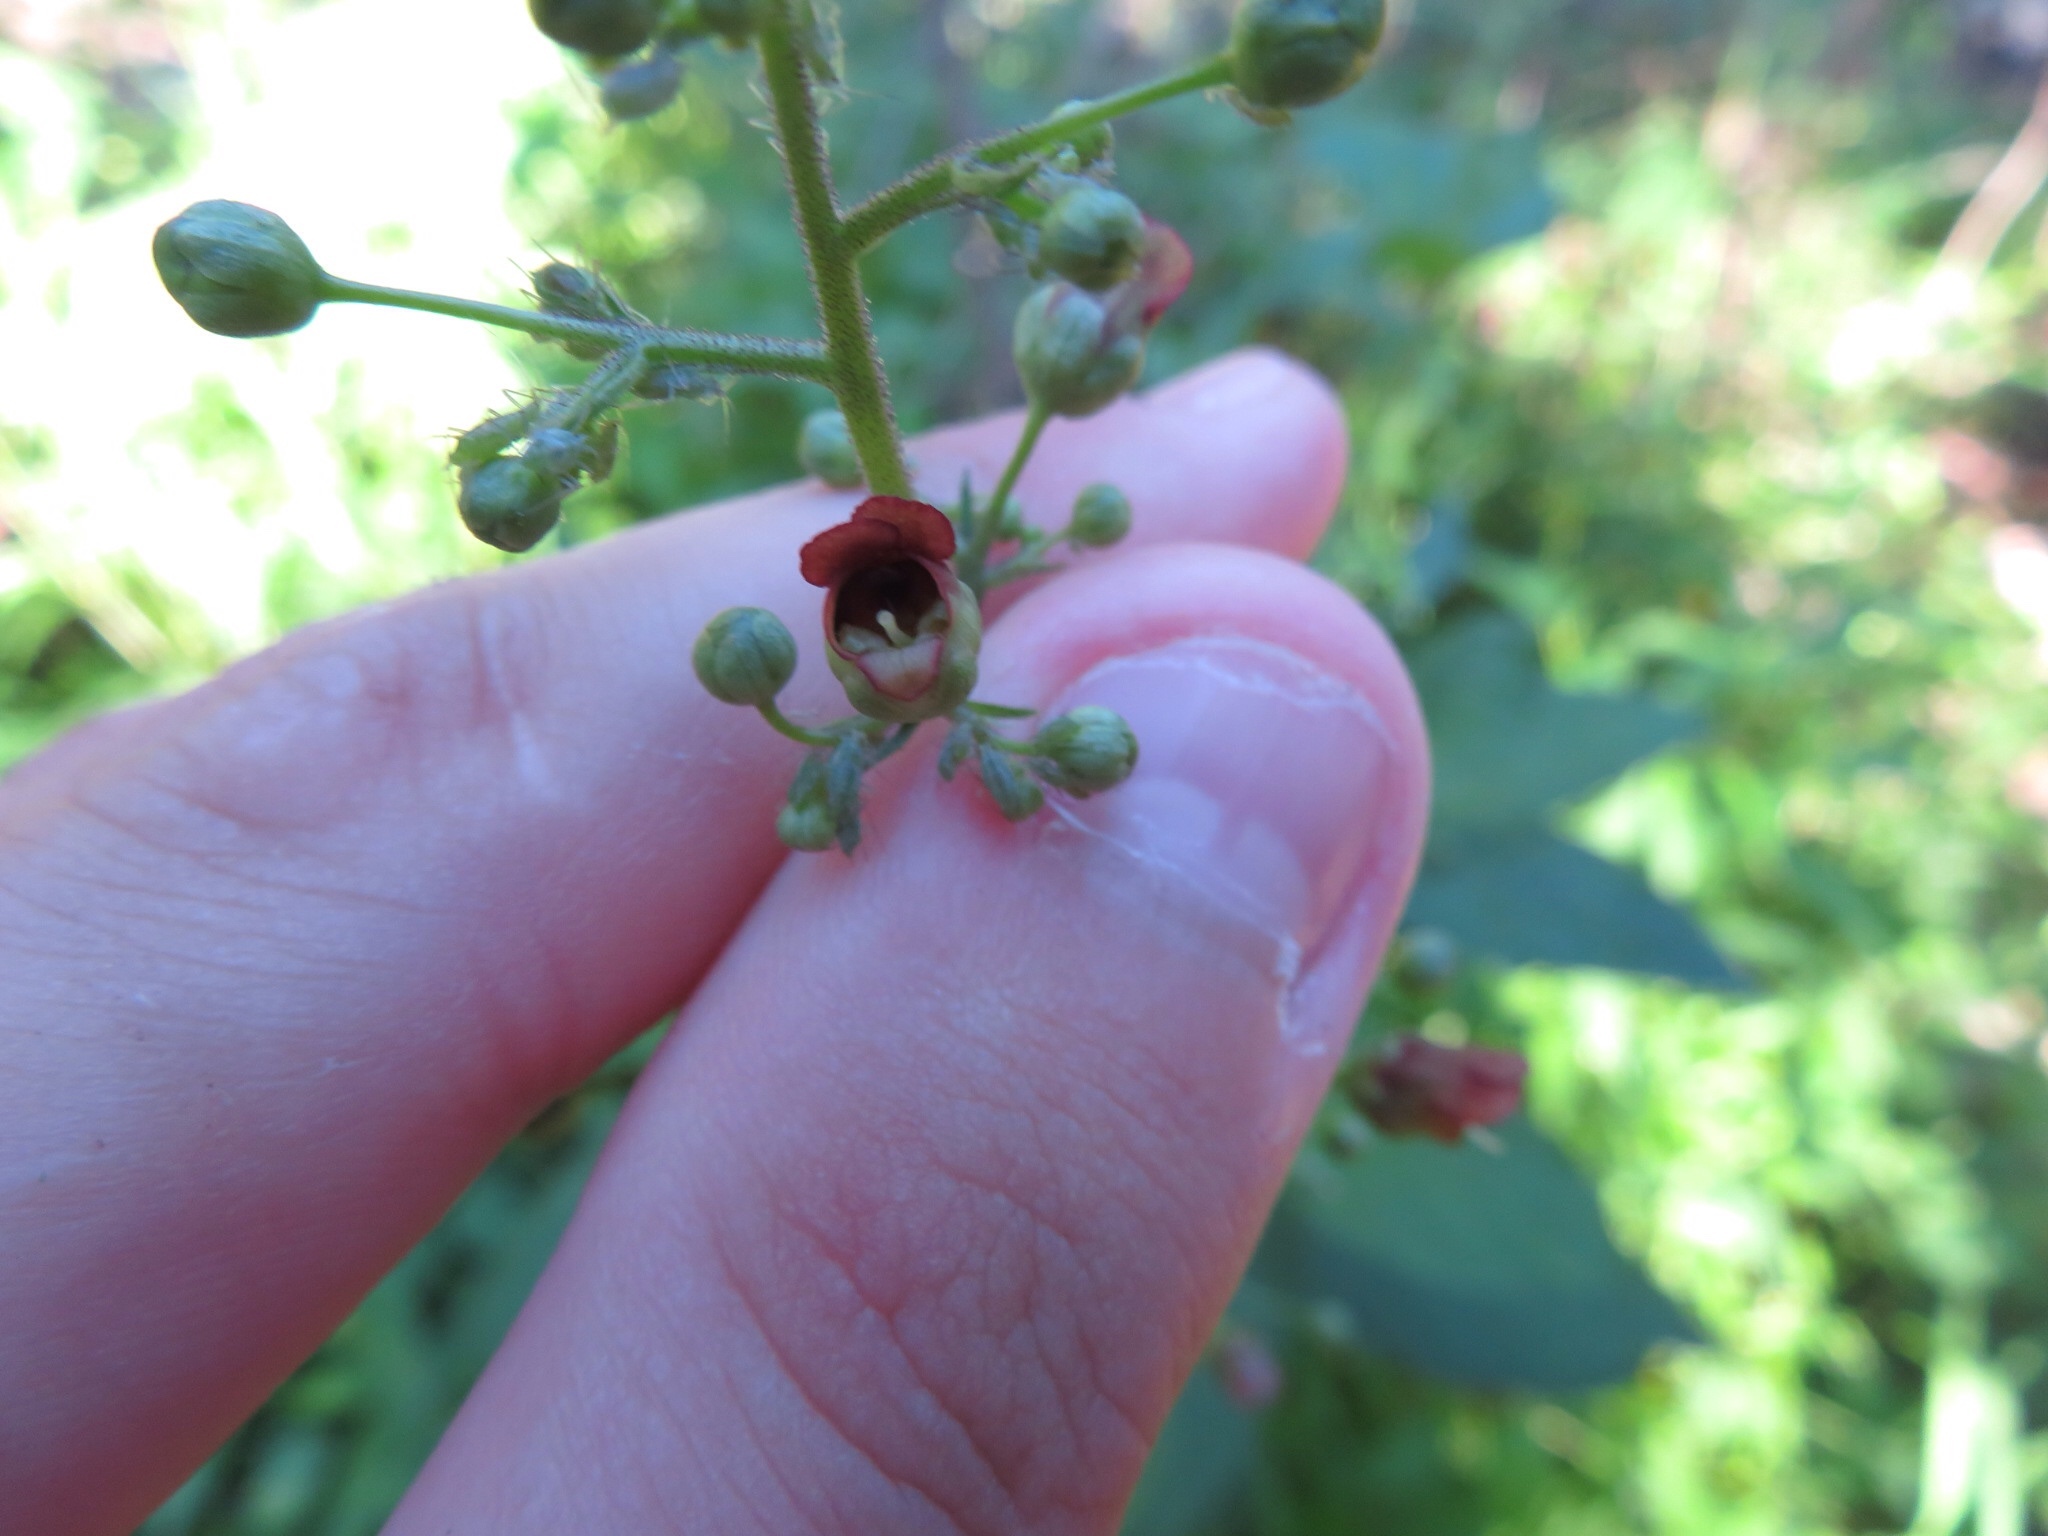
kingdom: Plantae
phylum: Tracheophyta
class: Magnoliopsida
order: Lamiales
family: Scrophulariaceae
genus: Scrophularia
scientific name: Scrophularia marilandica
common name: Eastern figwort
